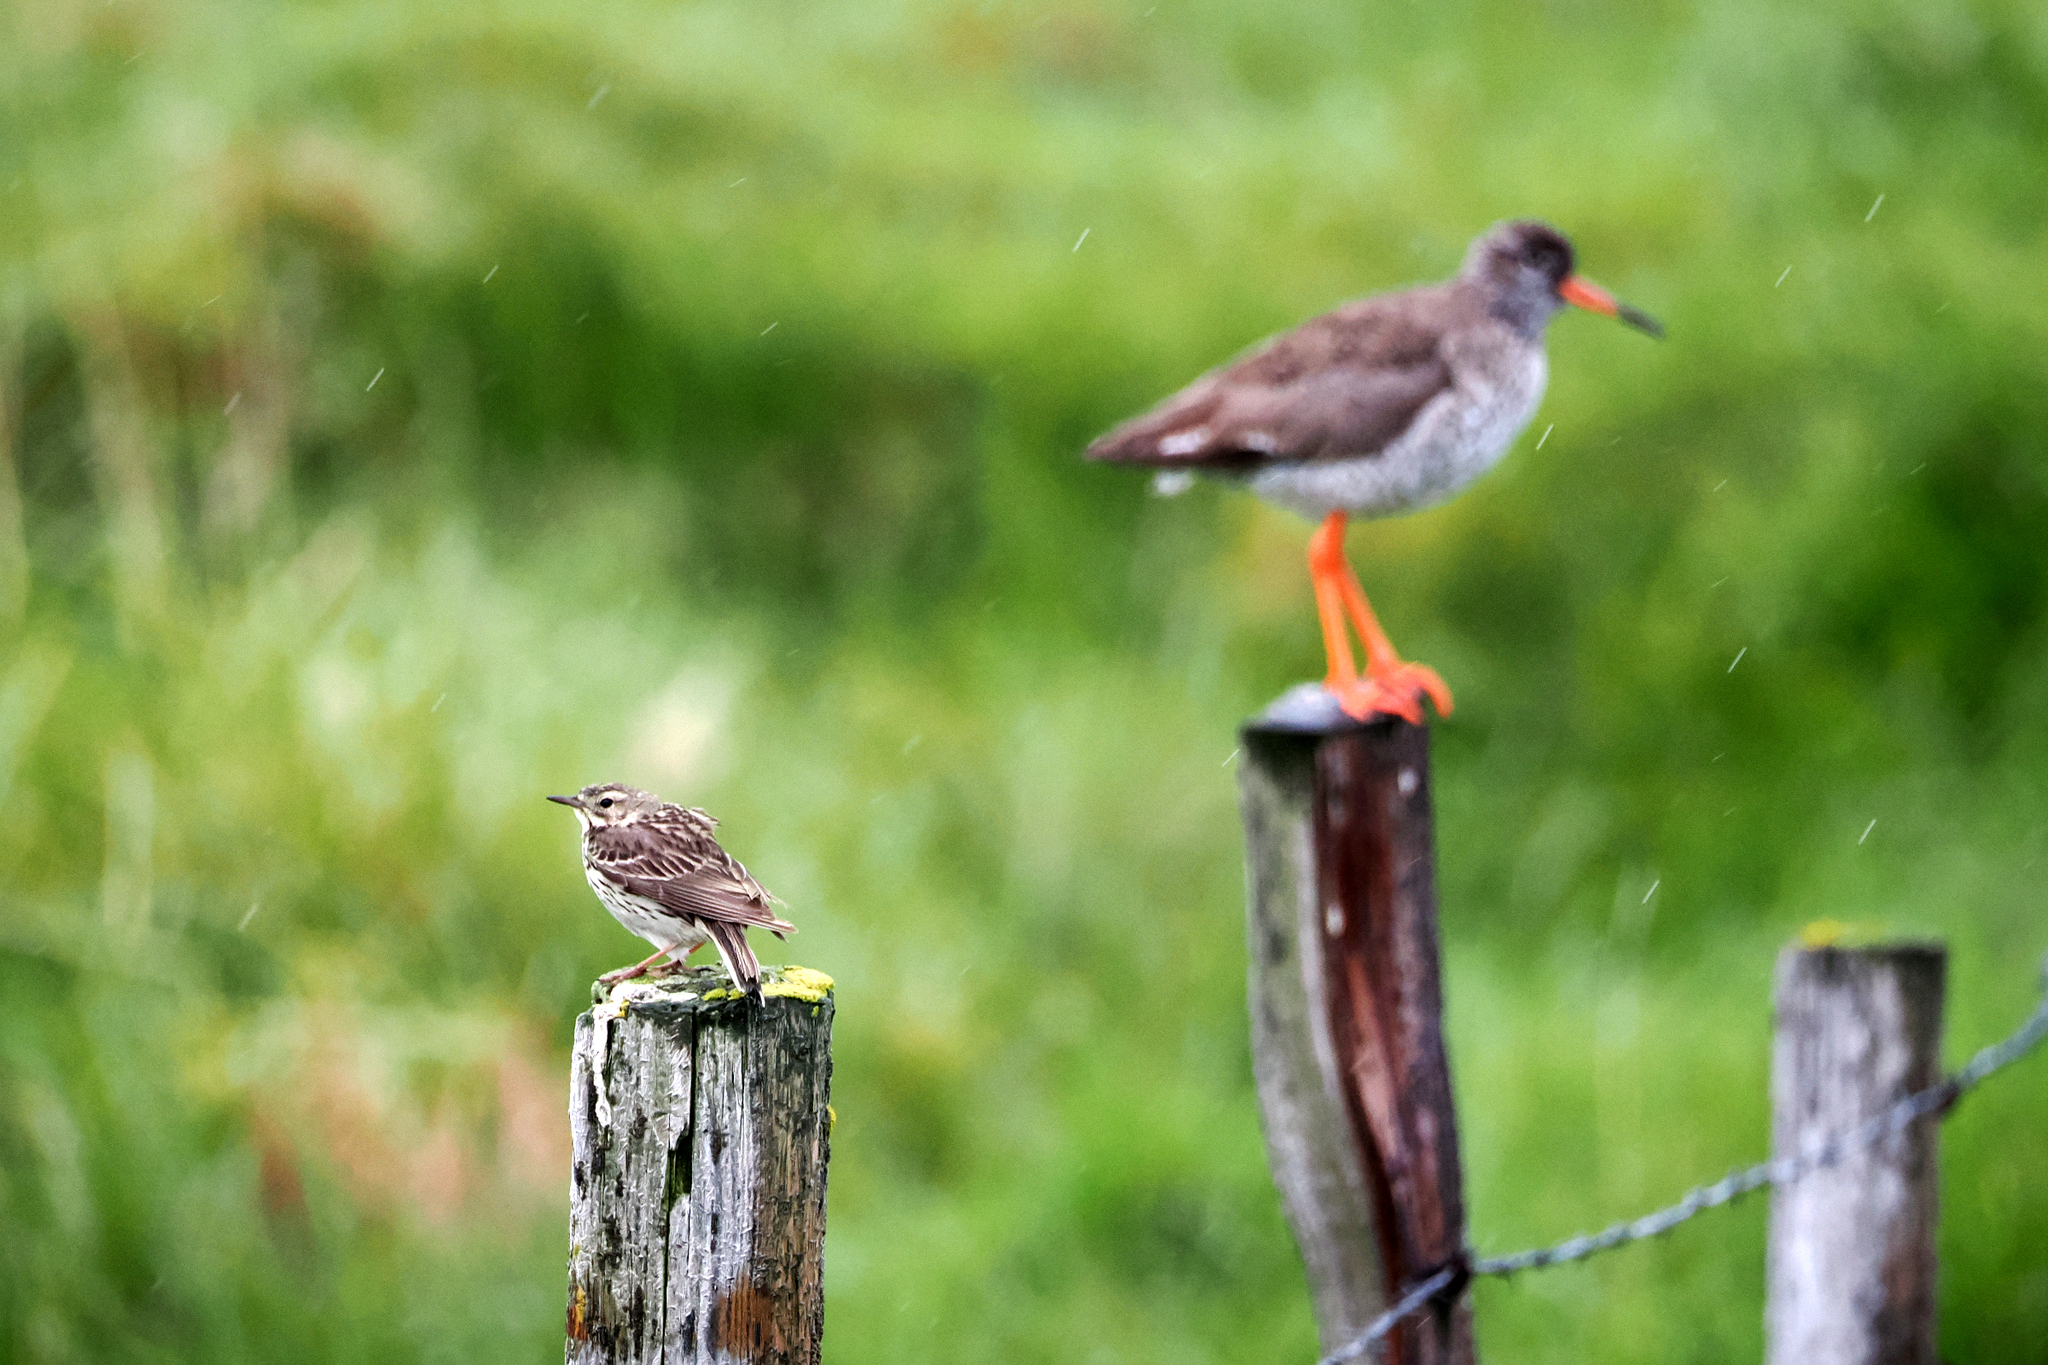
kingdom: Animalia
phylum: Chordata
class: Aves
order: Passeriformes
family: Motacillidae
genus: Anthus
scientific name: Anthus pratensis
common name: Meadow pipit
